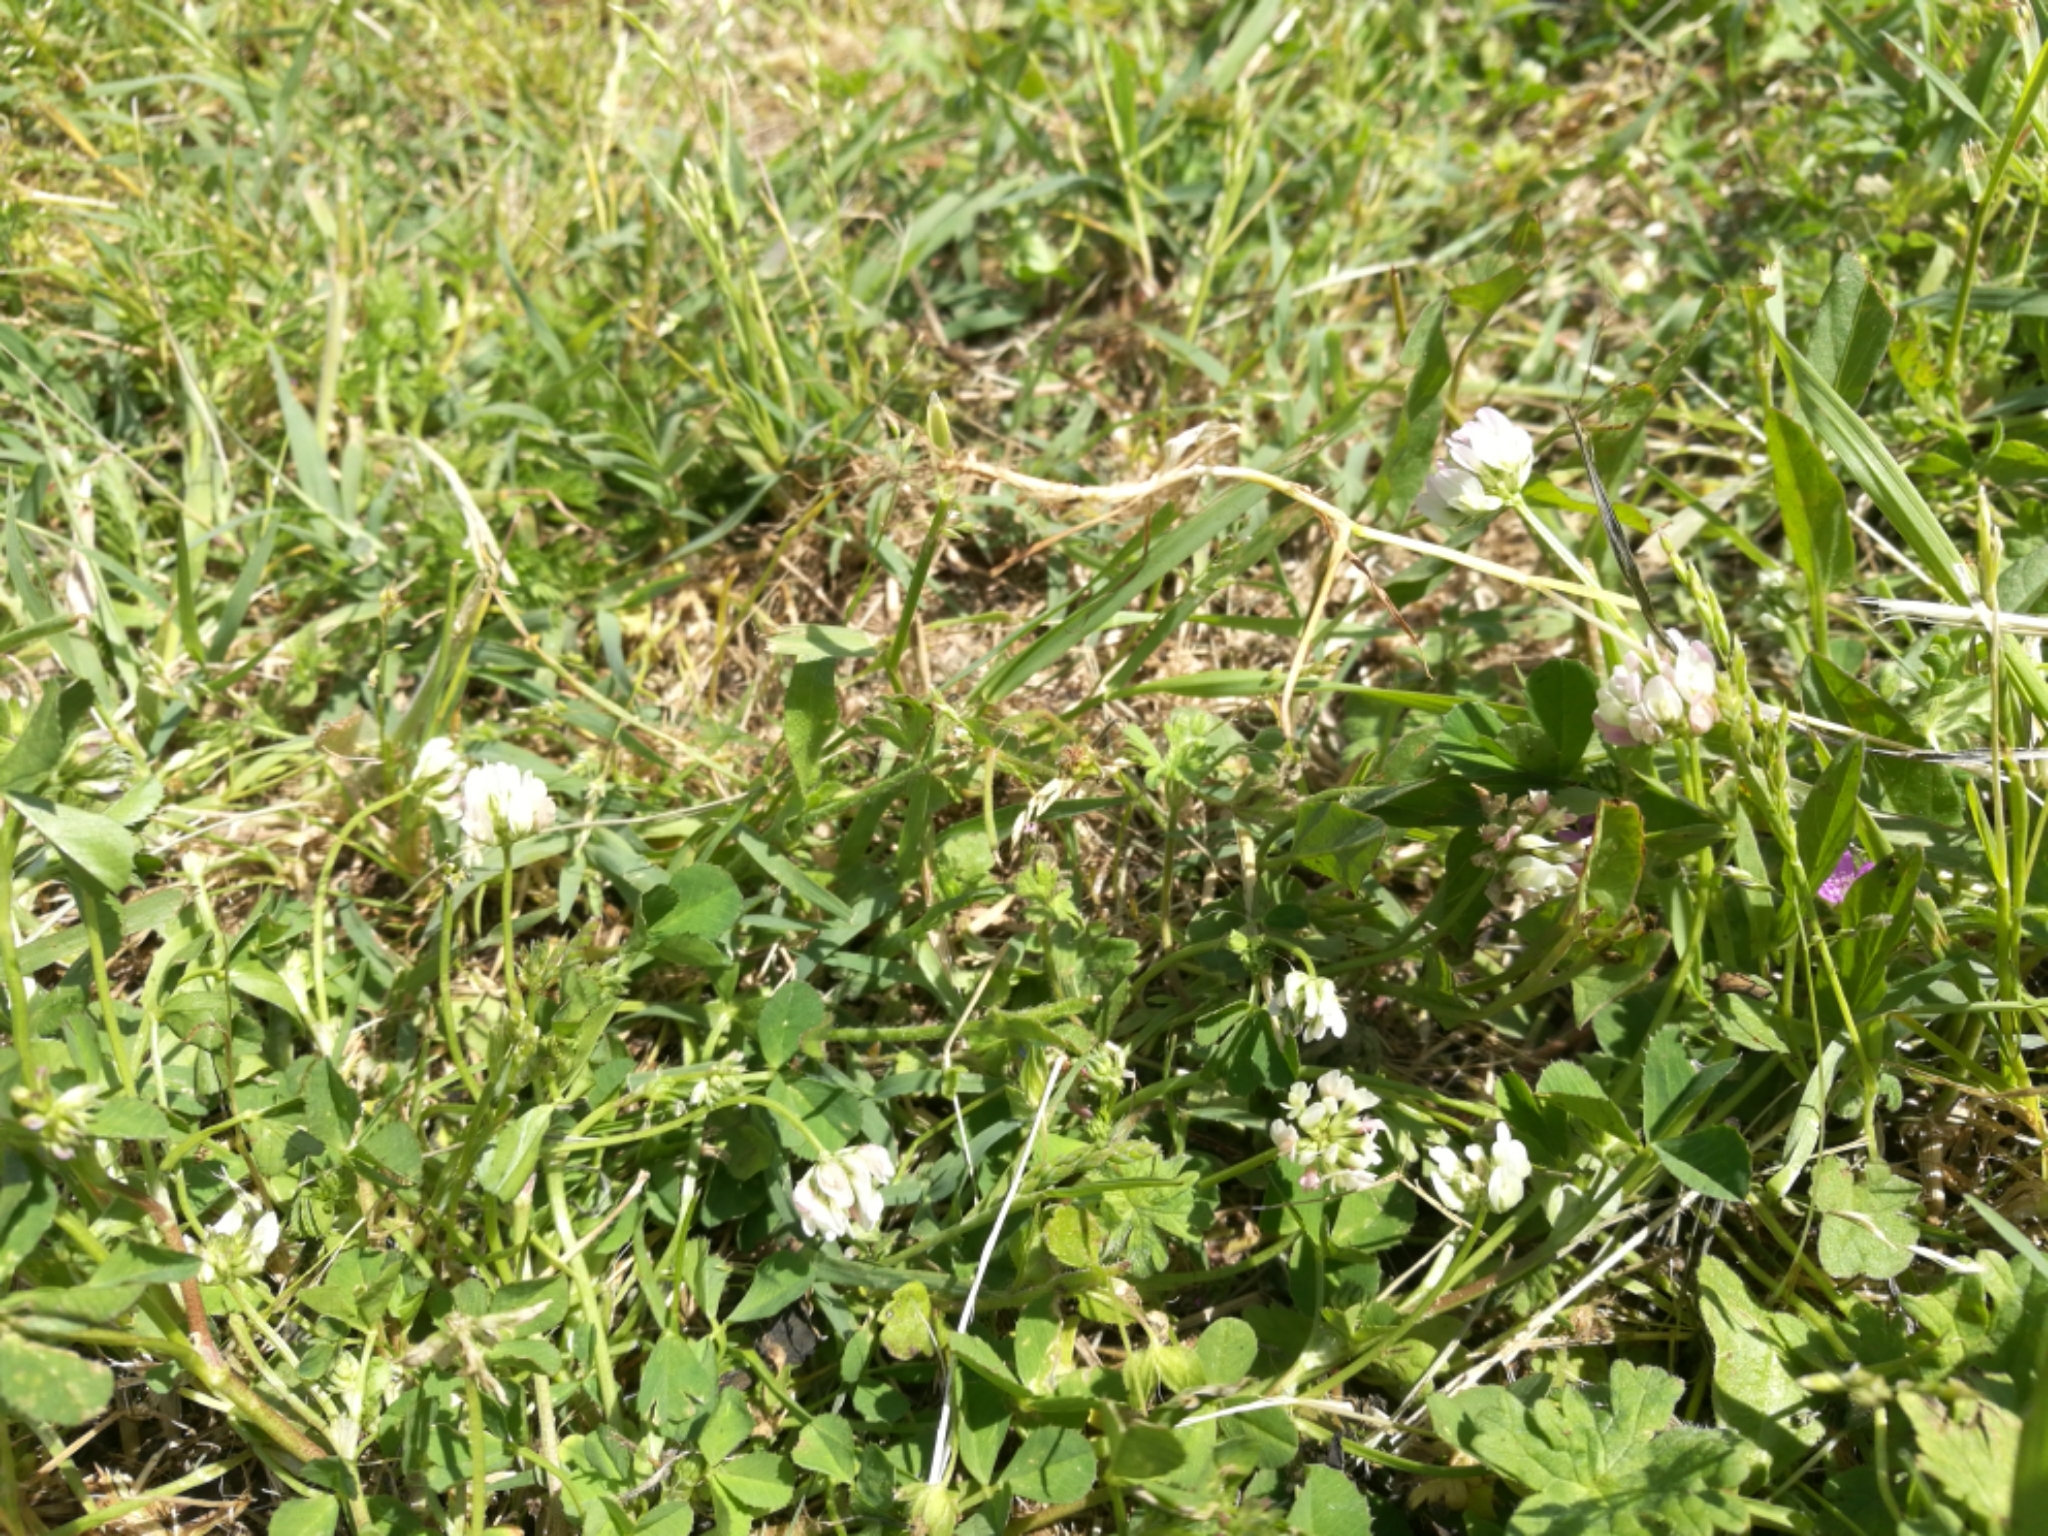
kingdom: Plantae
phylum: Tracheophyta
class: Magnoliopsida
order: Fabales
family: Fabaceae
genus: Trifolium
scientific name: Trifolium nigrescens
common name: Small white clover
